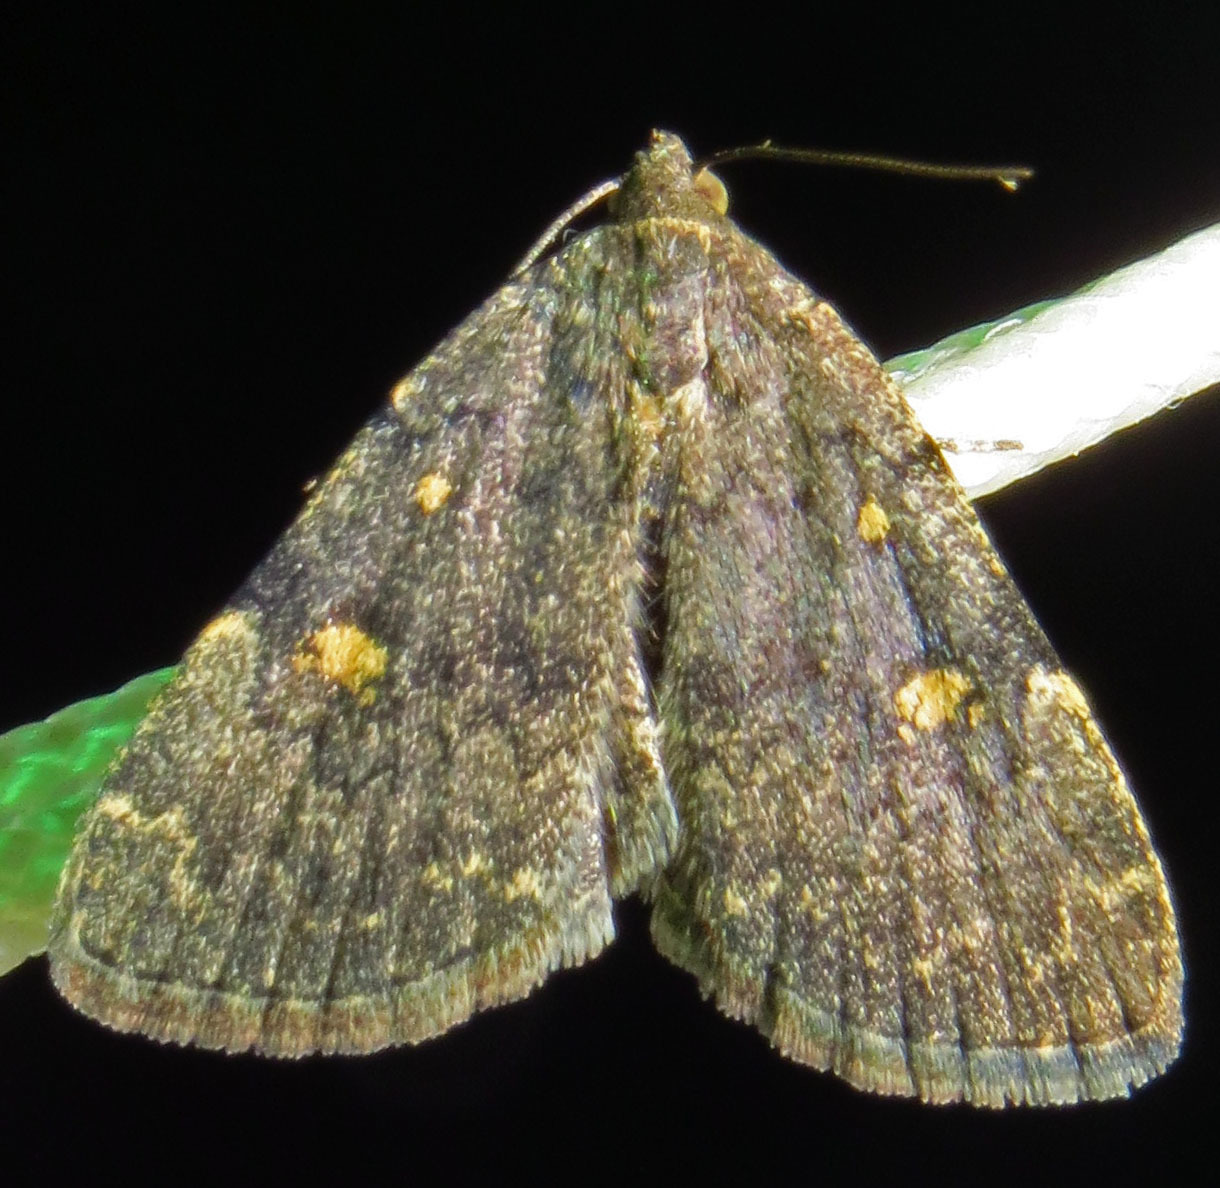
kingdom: Animalia
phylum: Arthropoda
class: Insecta
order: Lepidoptera
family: Erebidae
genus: Idia
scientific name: Idia aemula
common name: Common idia moth
